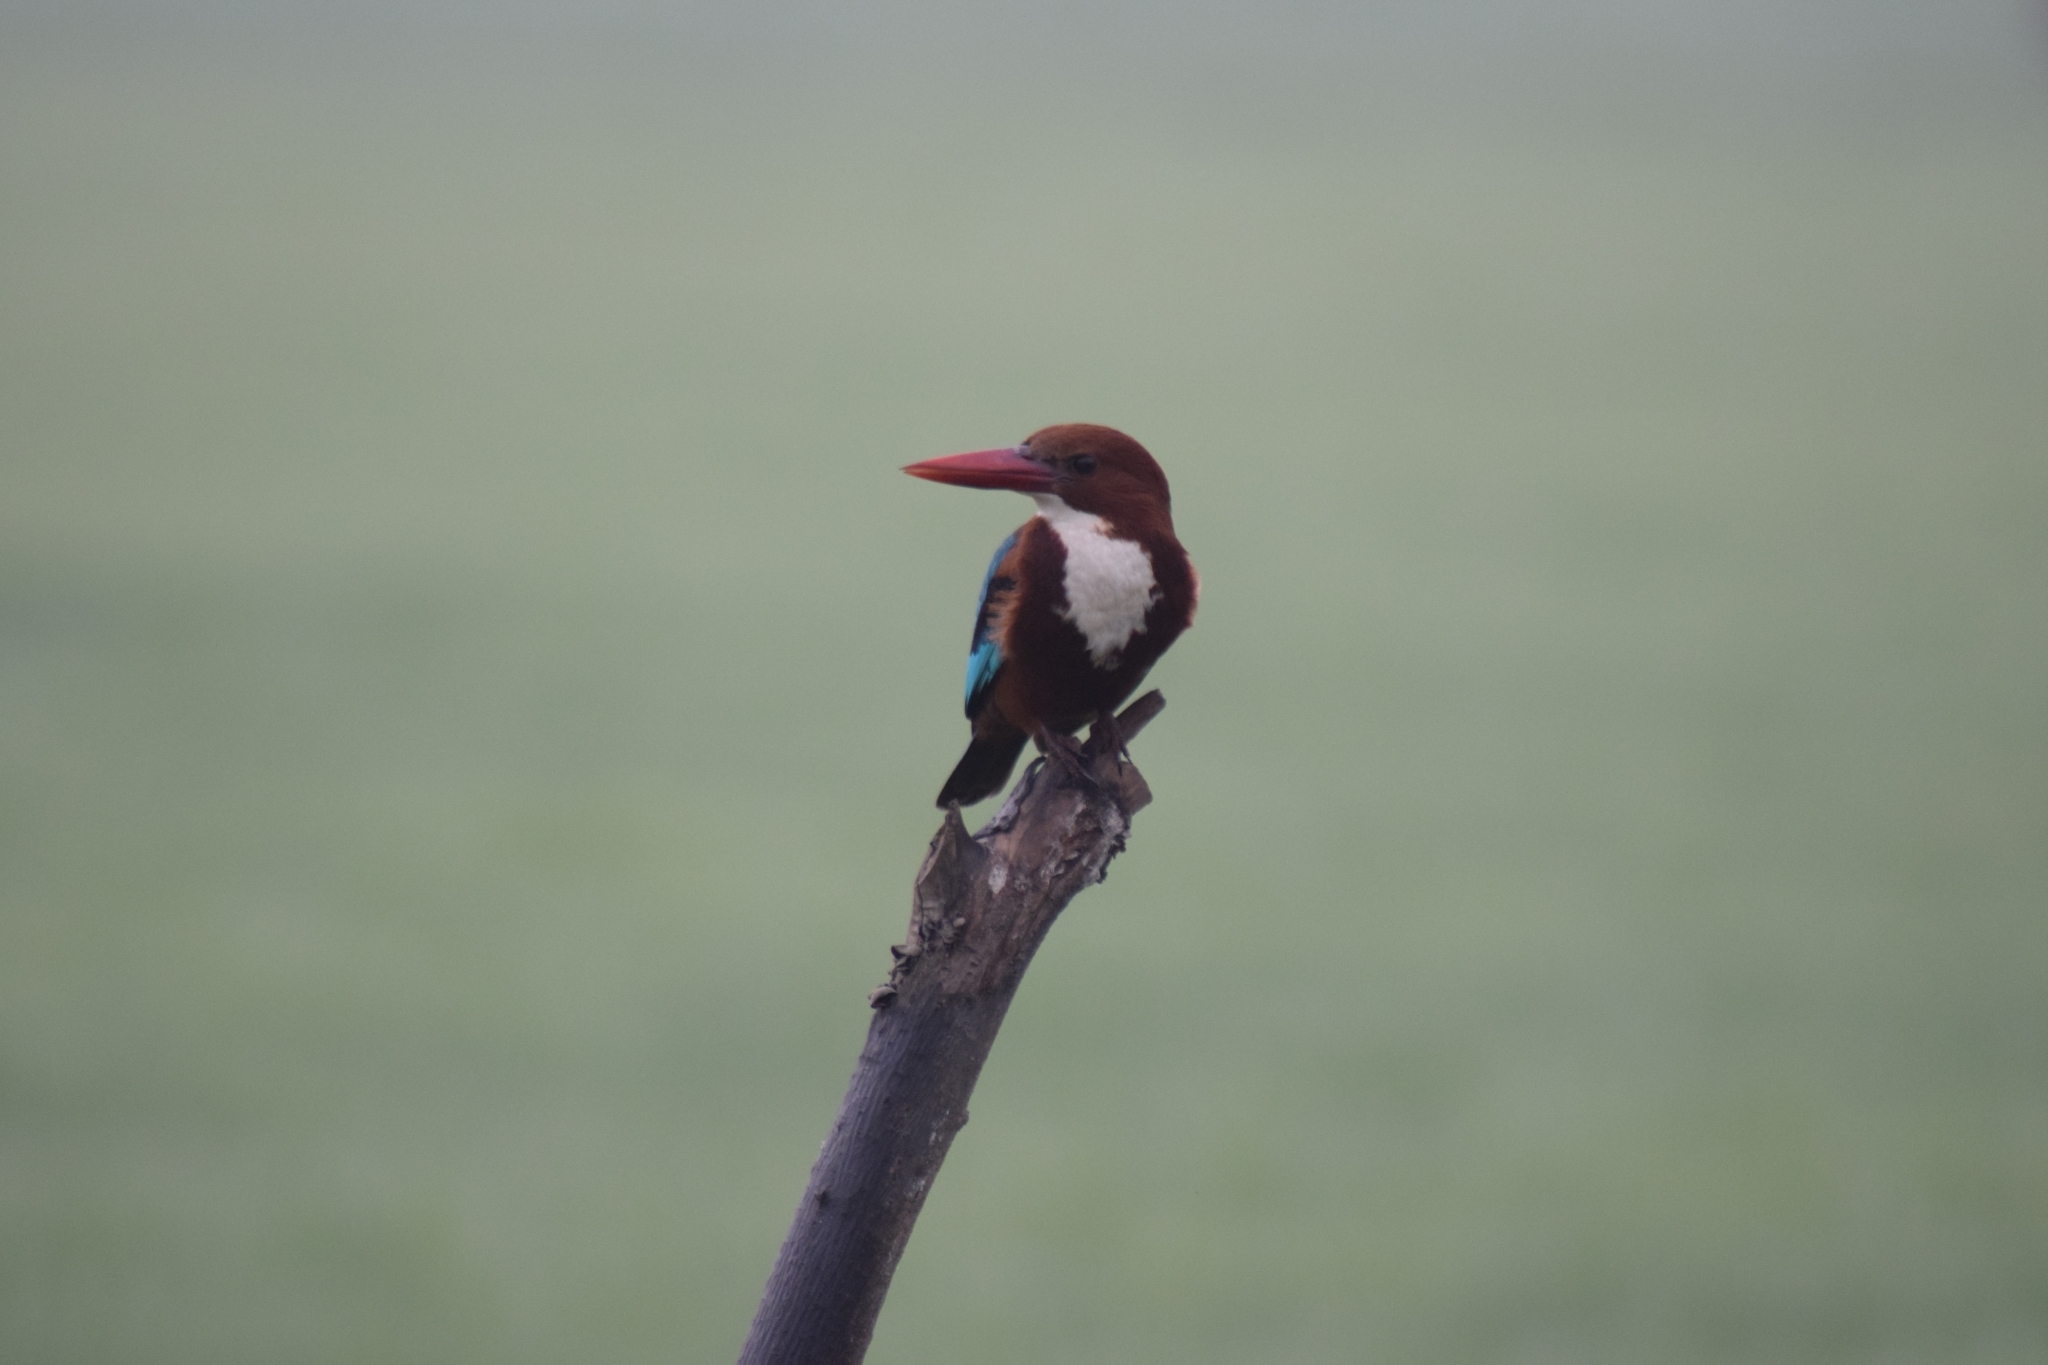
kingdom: Animalia
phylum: Chordata
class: Aves
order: Coraciiformes
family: Alcedinidae
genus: Halcyon
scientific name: Halcyon smyrnensis
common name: White-throated kingfisher
